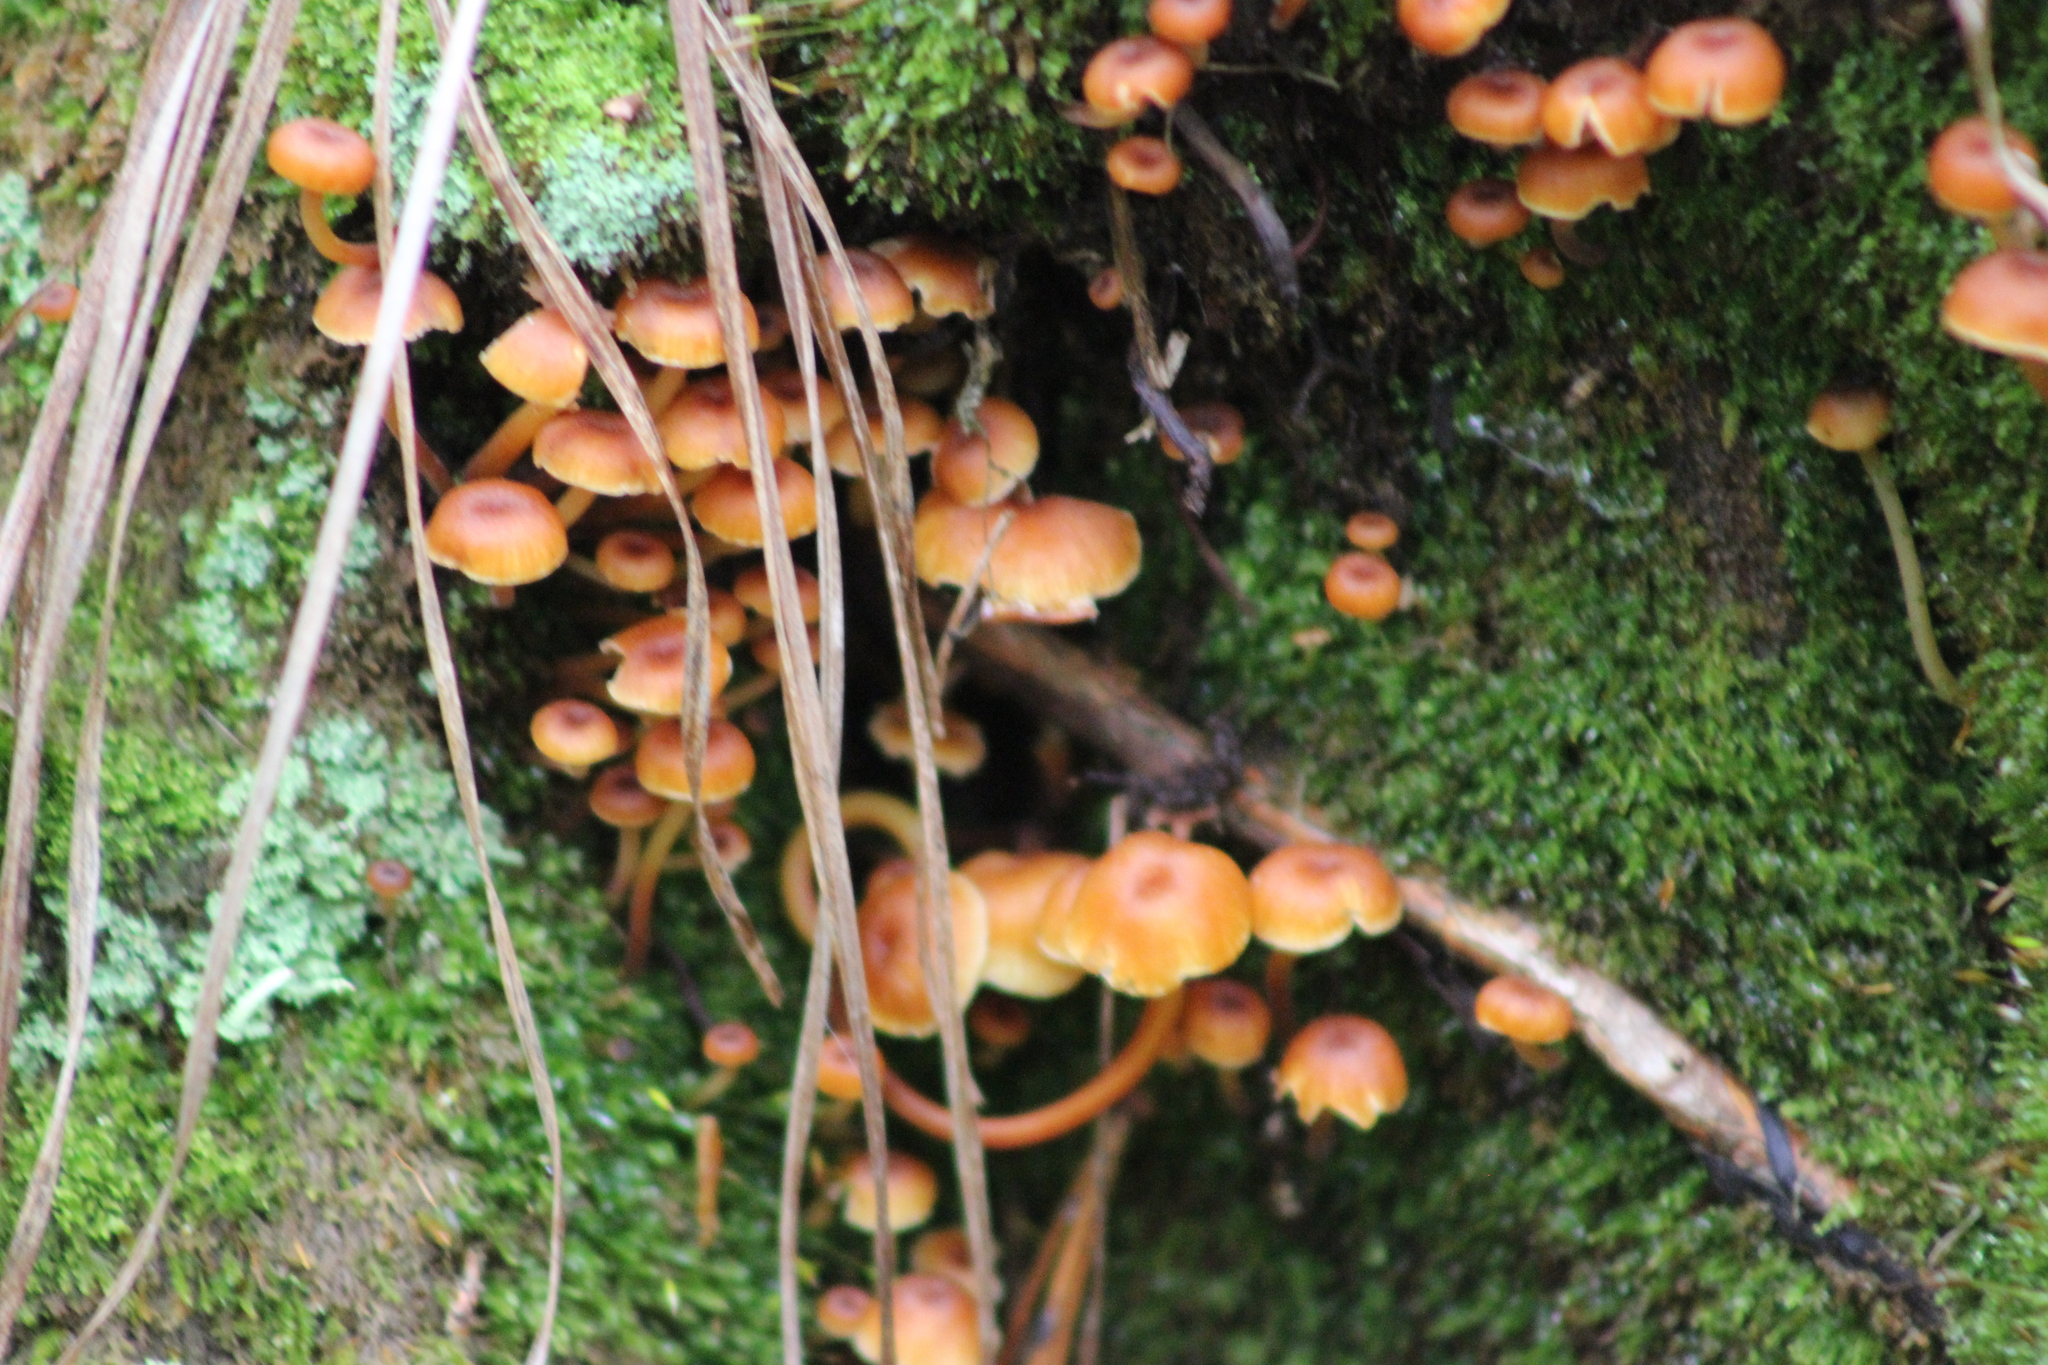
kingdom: Fungi
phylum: Basidiomycota
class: Agaricomycetes
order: Agaricales
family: Mycenaceae
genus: Xeromphalina
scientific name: Xeromphalina campanella
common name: Pinewood gingertail
